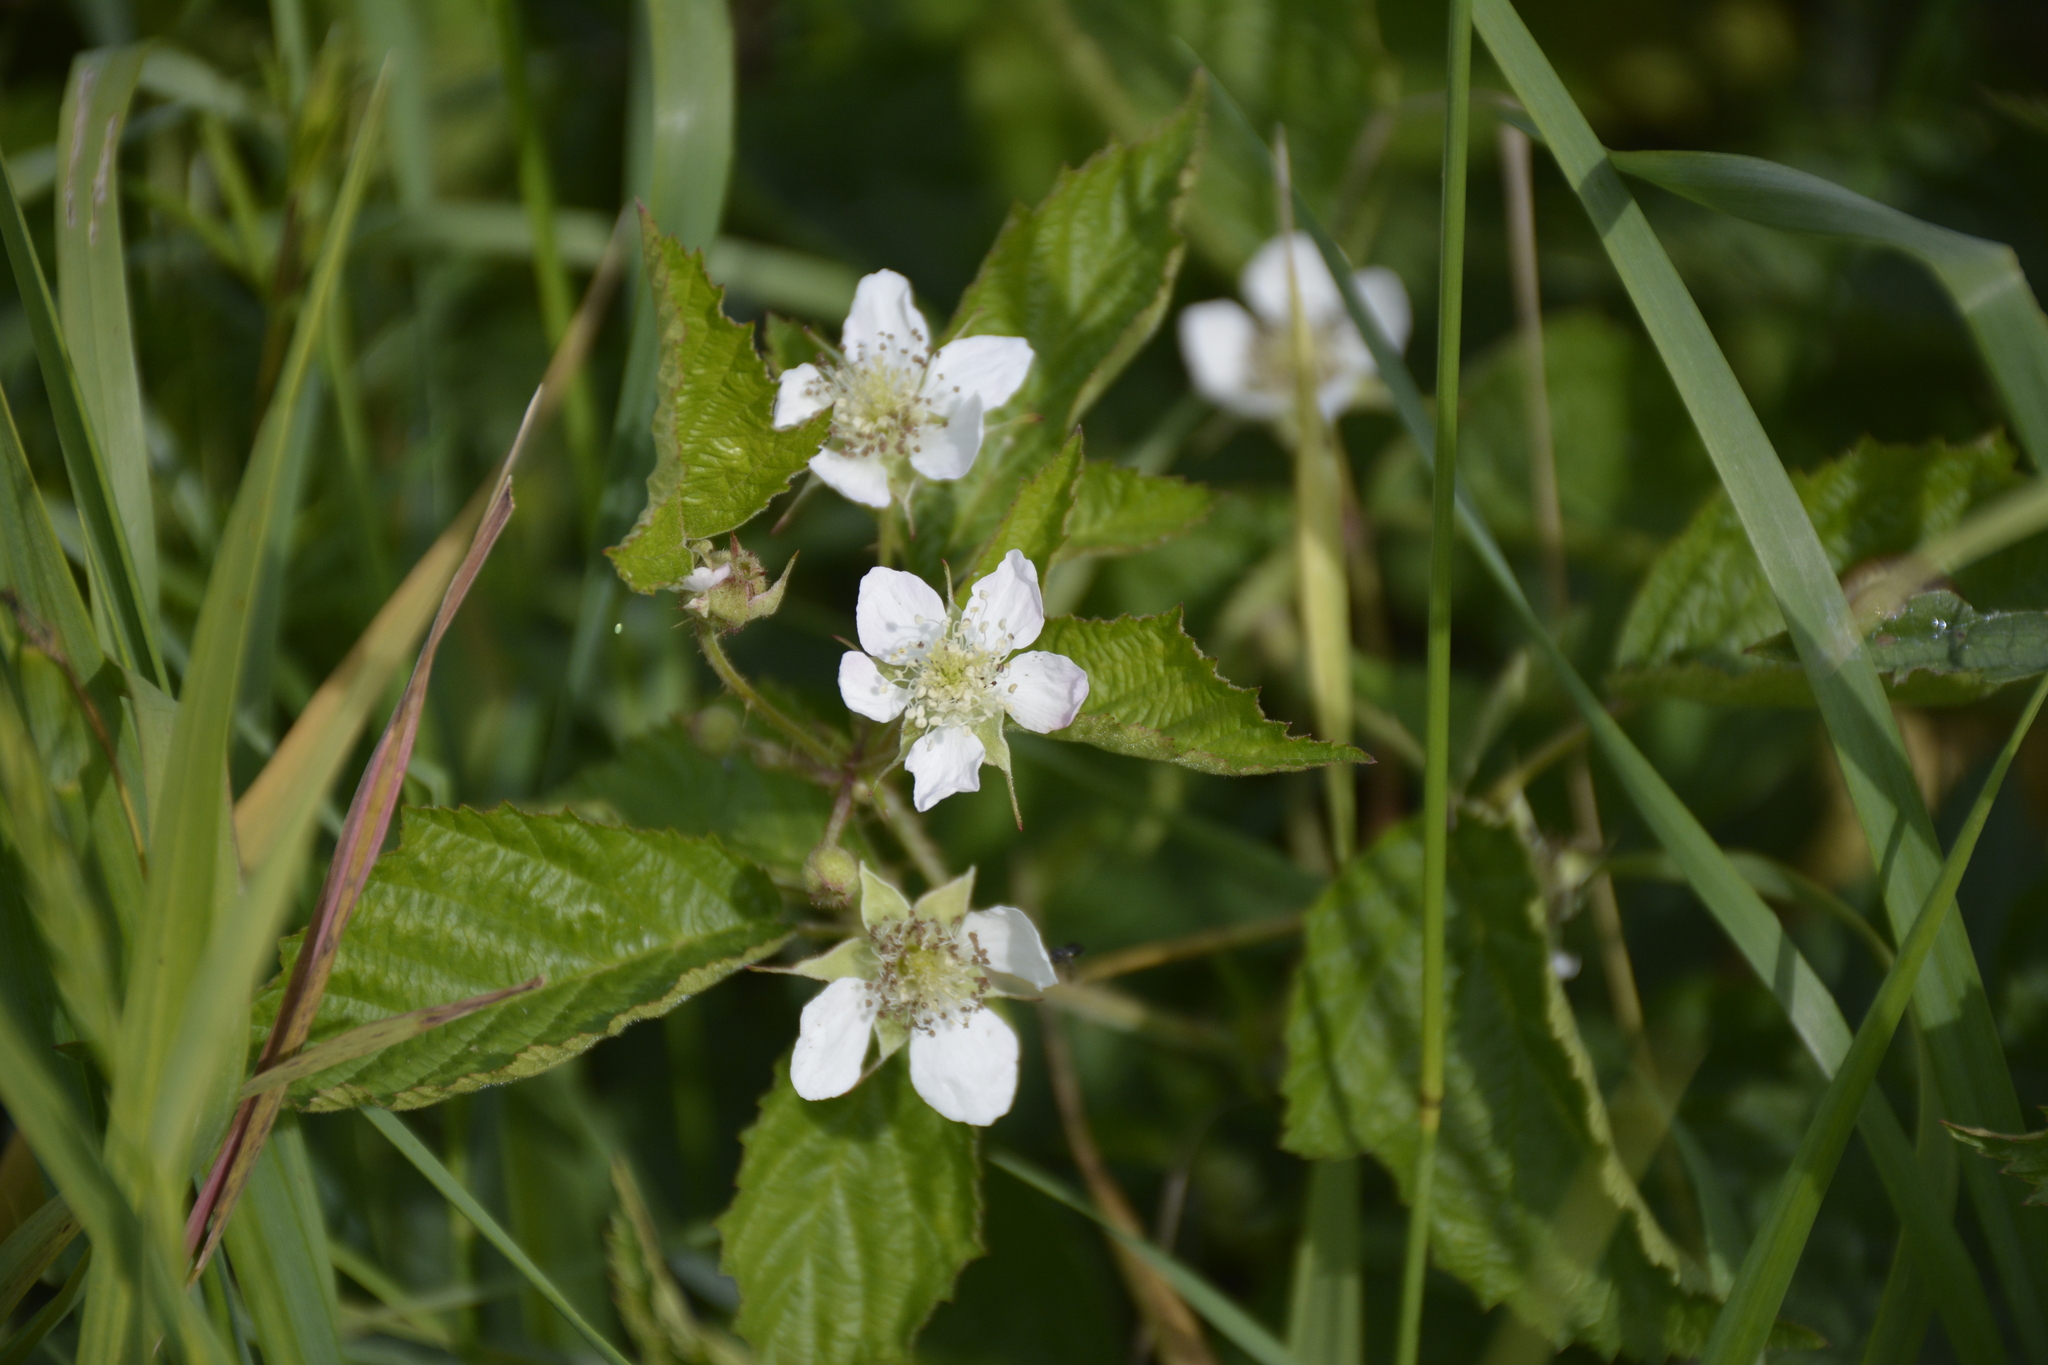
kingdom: Plantae
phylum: Tracheophyta
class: Magnoliopsida
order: Rosales
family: Rosaceae
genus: Rubus
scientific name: Rubus caesius
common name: Dewberry
